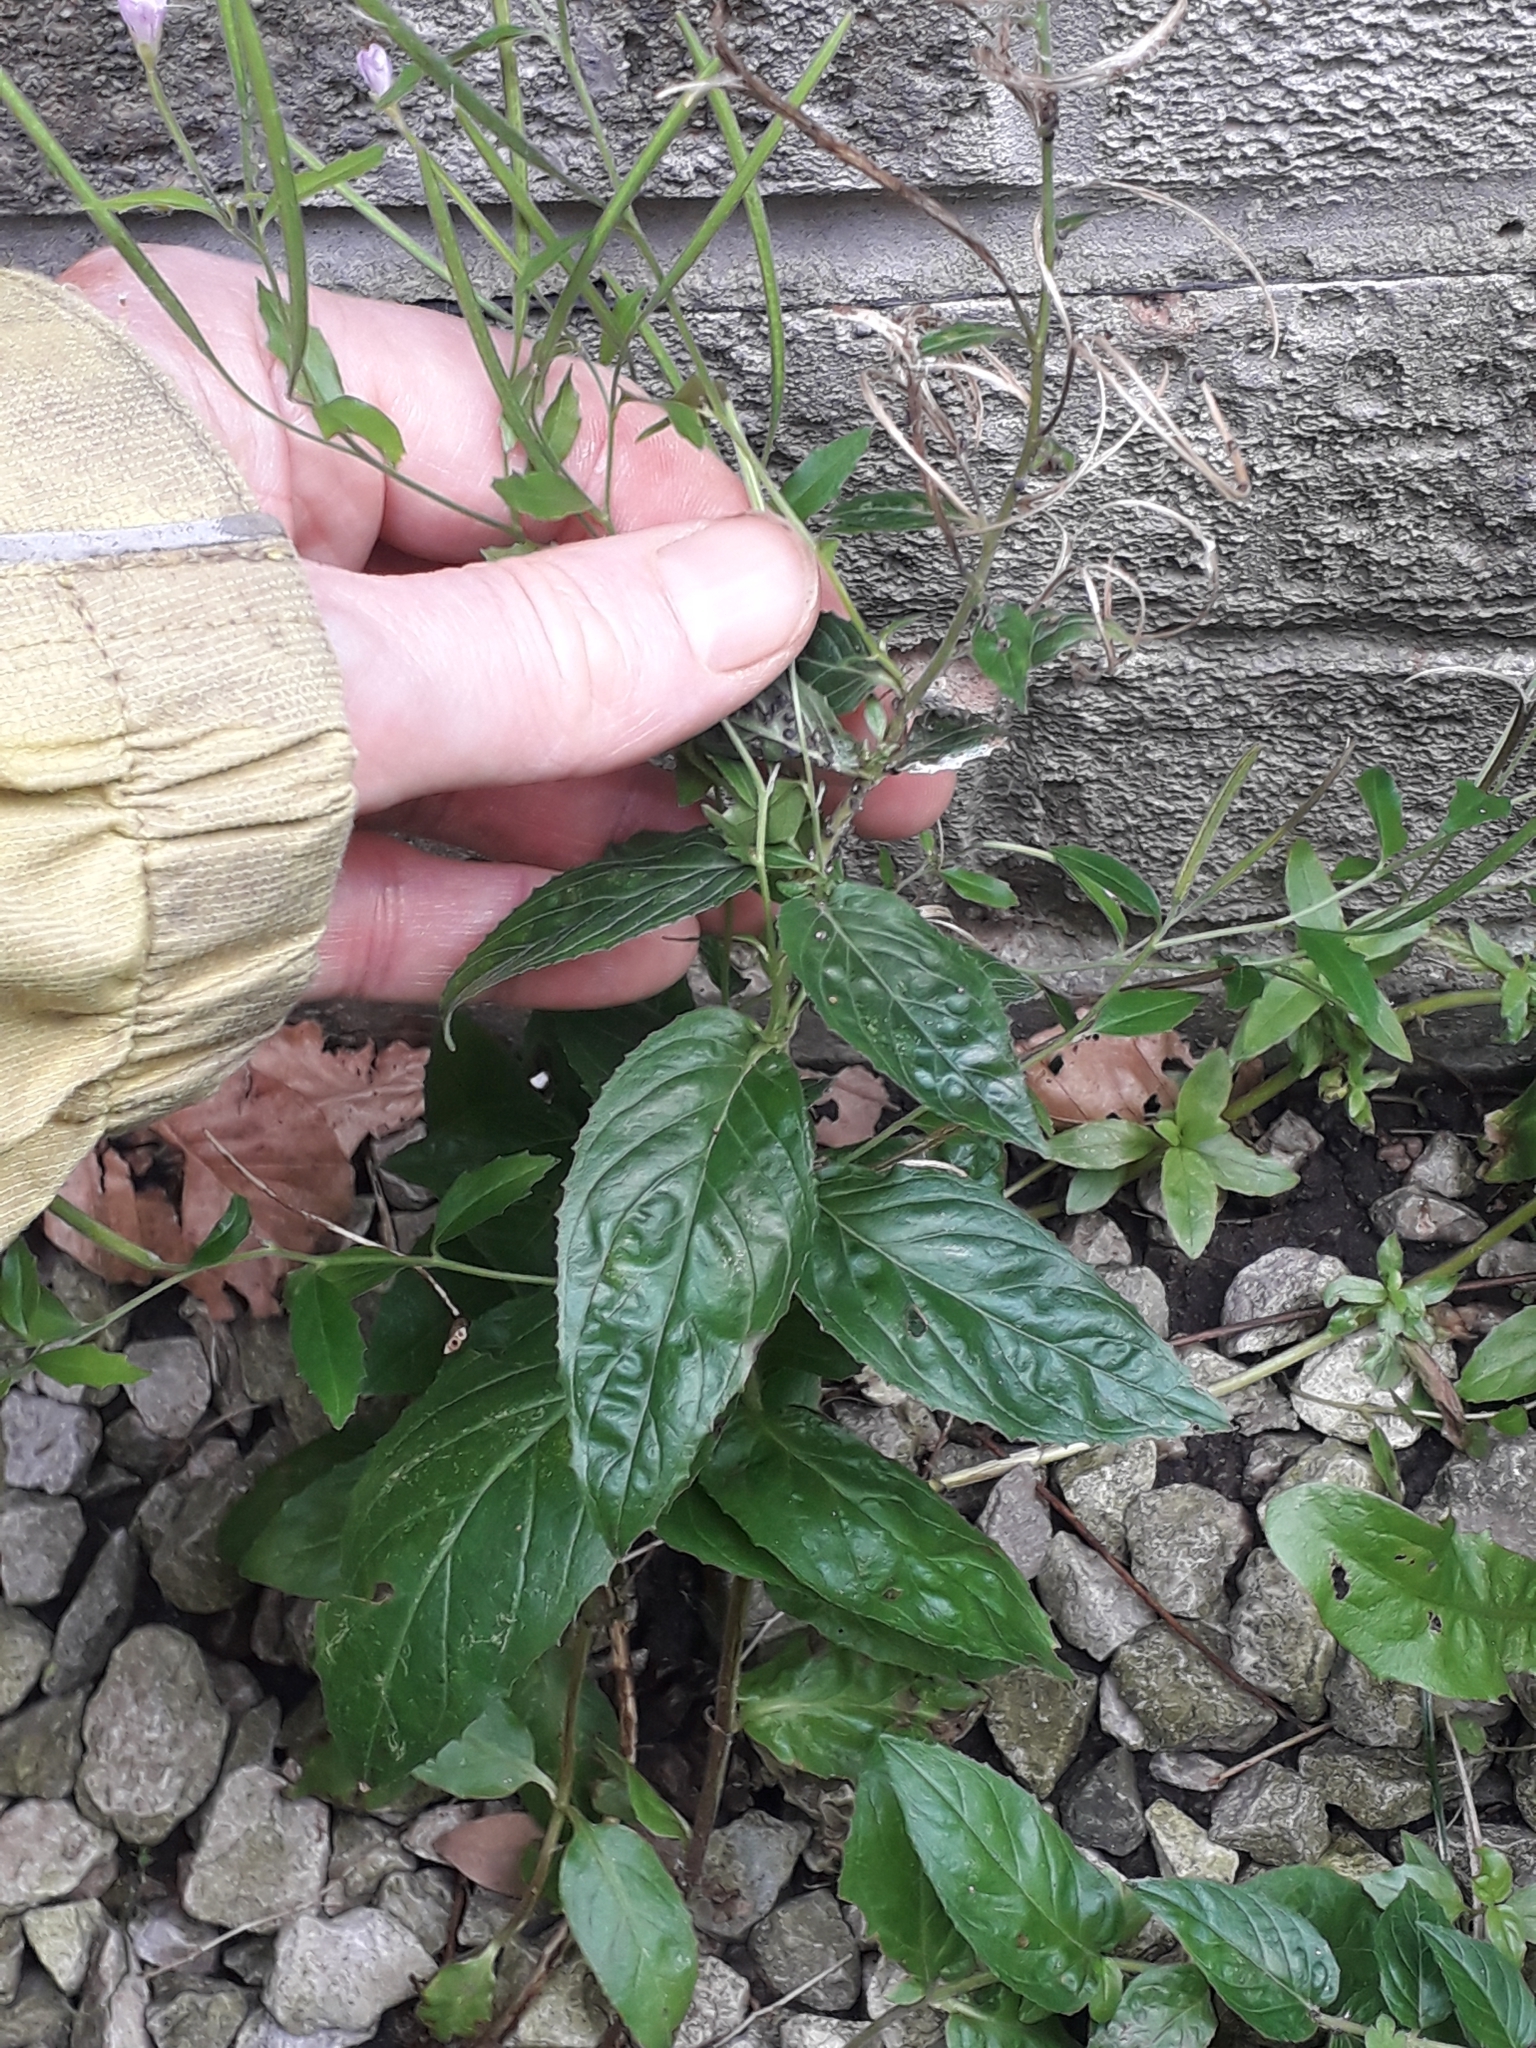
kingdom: Plantae
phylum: Tracheophyta
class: Magnoliopsida
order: Myrtales
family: Onagraceae
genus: Epilobium
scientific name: Epilobium montanum
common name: Broad-leaved willowherb
